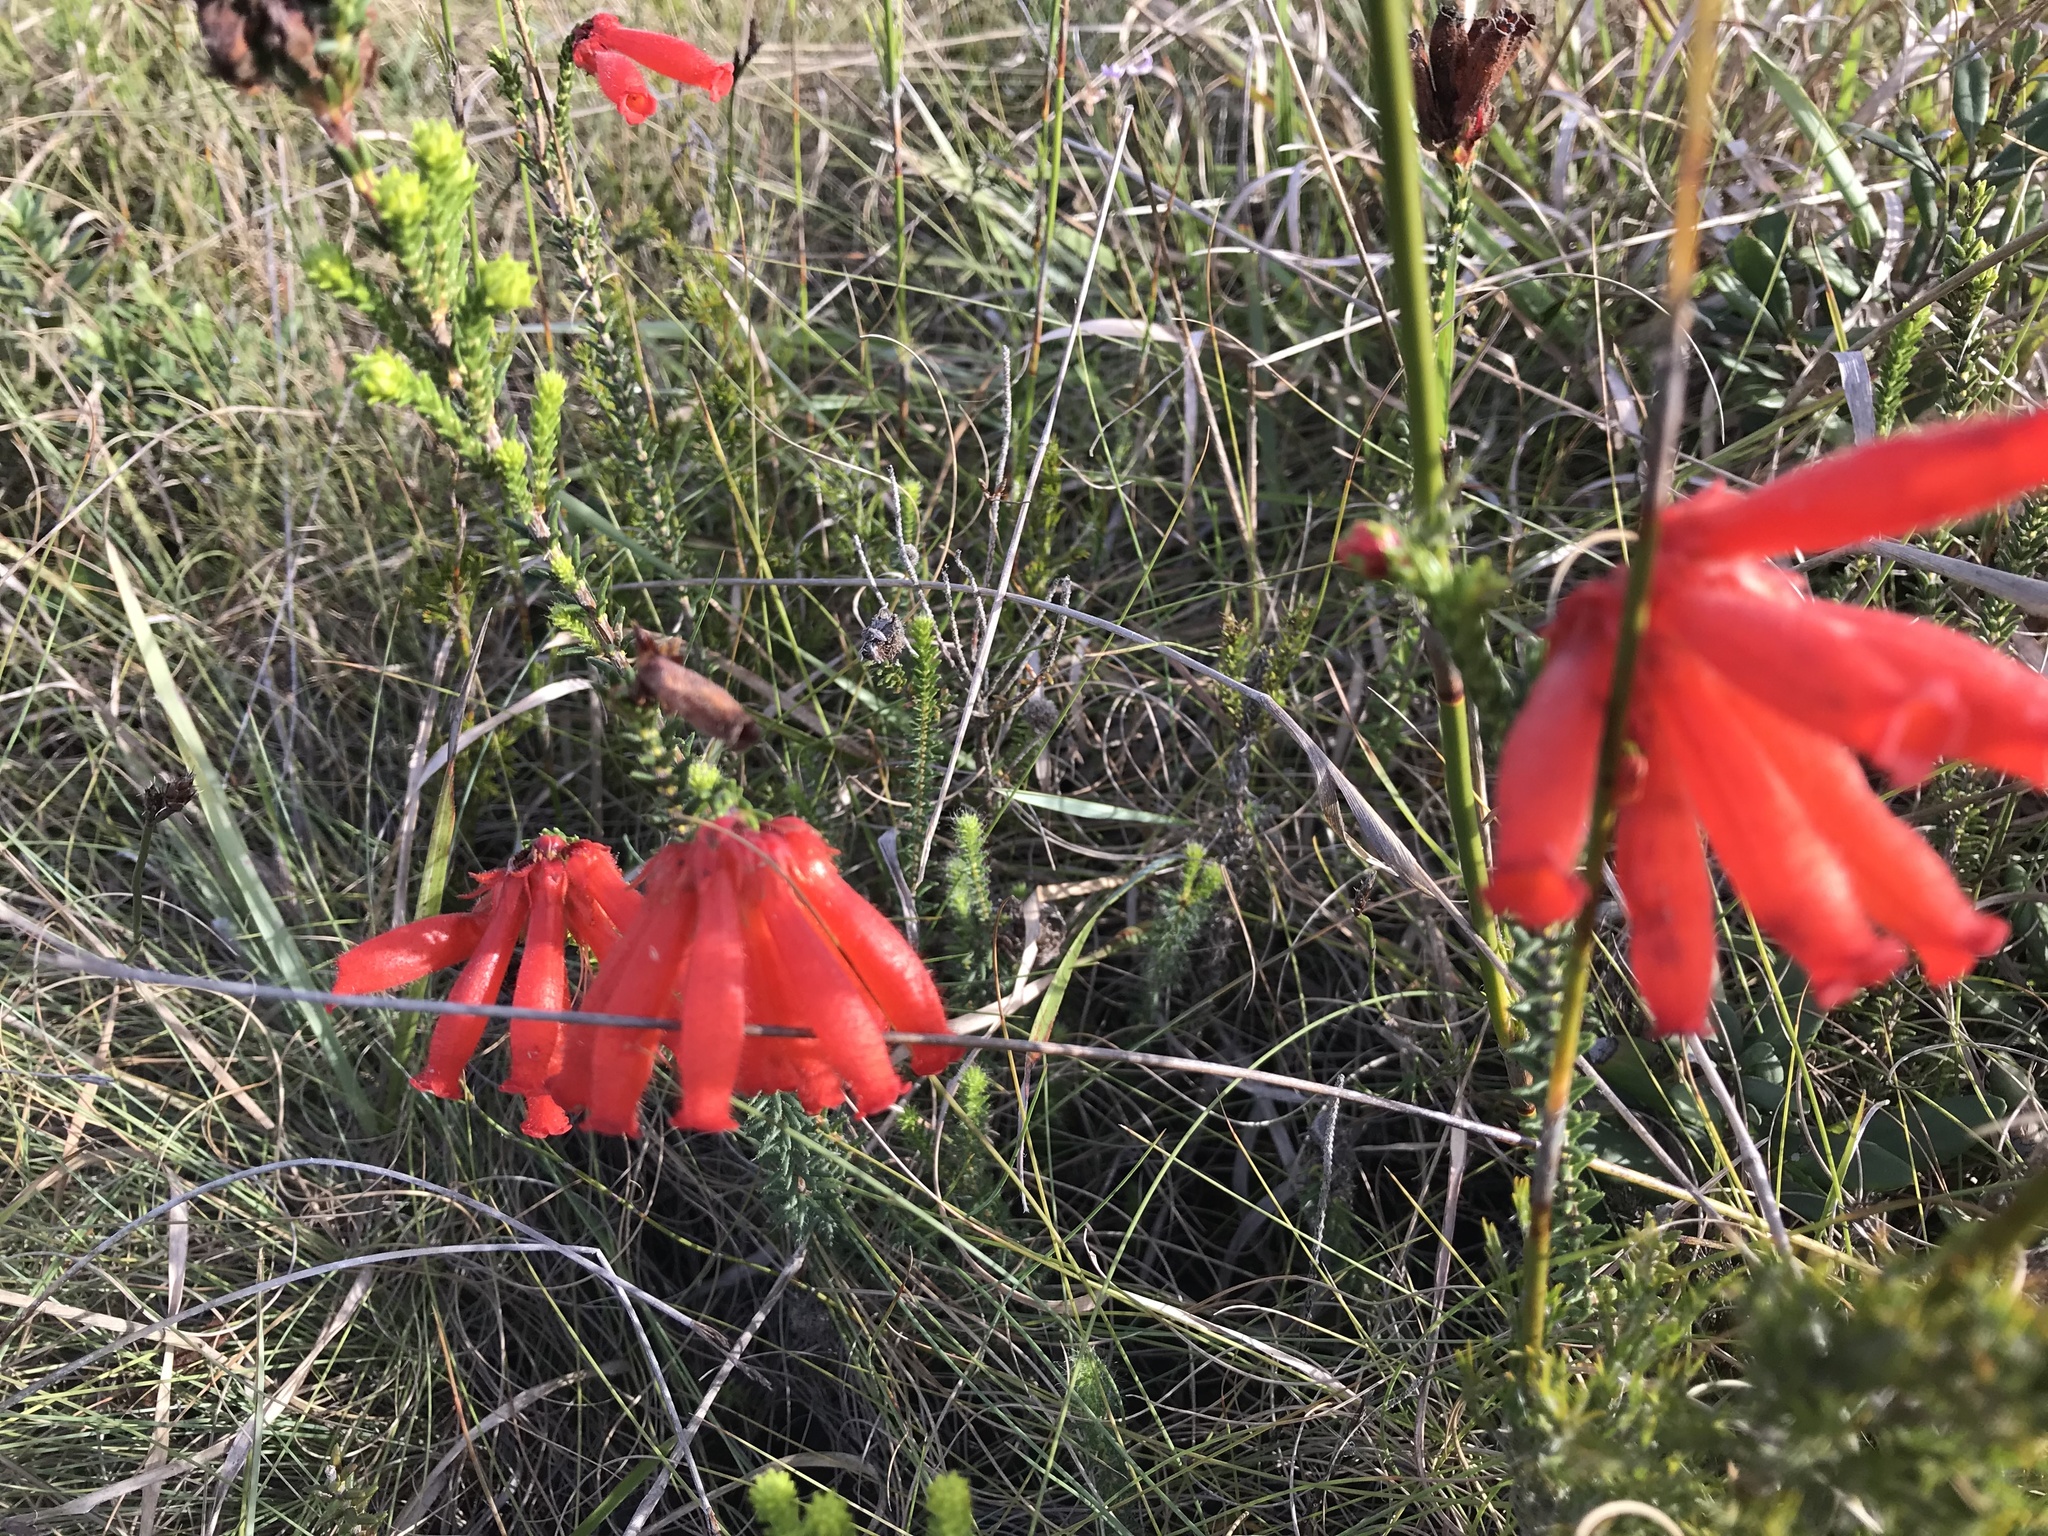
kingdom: Plantae
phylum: Tracheophyta
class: Magnoliopsida
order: Ericales
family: Ericaceae
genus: Erica
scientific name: Erica cerinthoides
